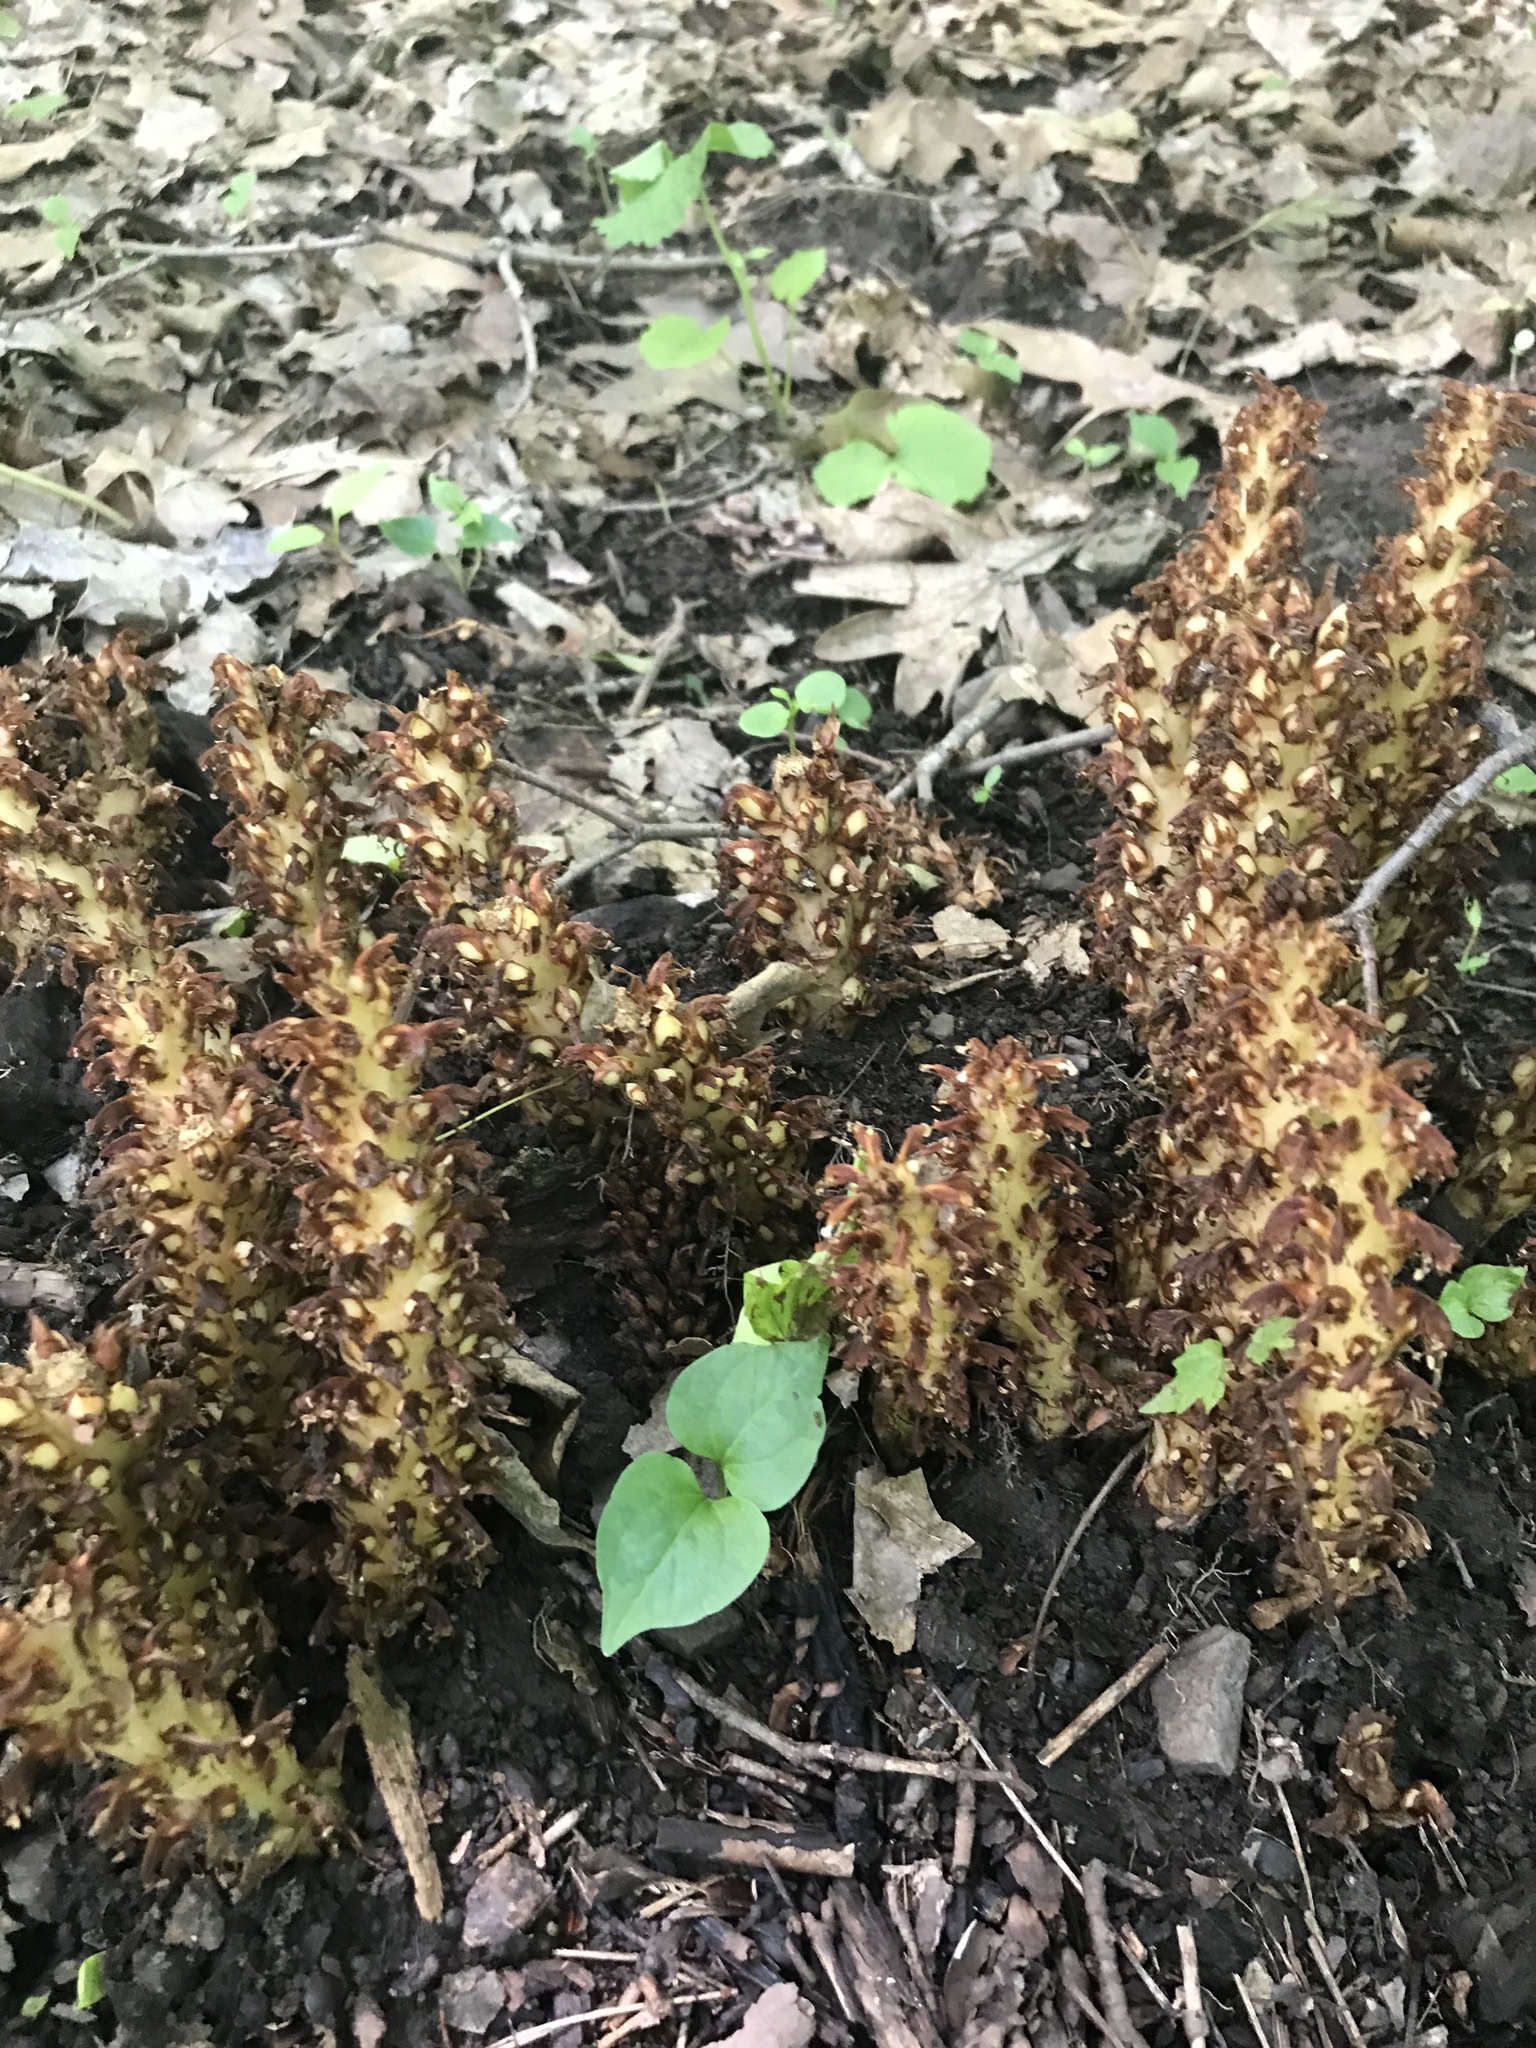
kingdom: Plantae
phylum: Tracheophyta
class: Magnoliopsida
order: Lamiales
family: Orobanchaceae
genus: Conopholis
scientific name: Conopholis americana
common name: American cancer-root
